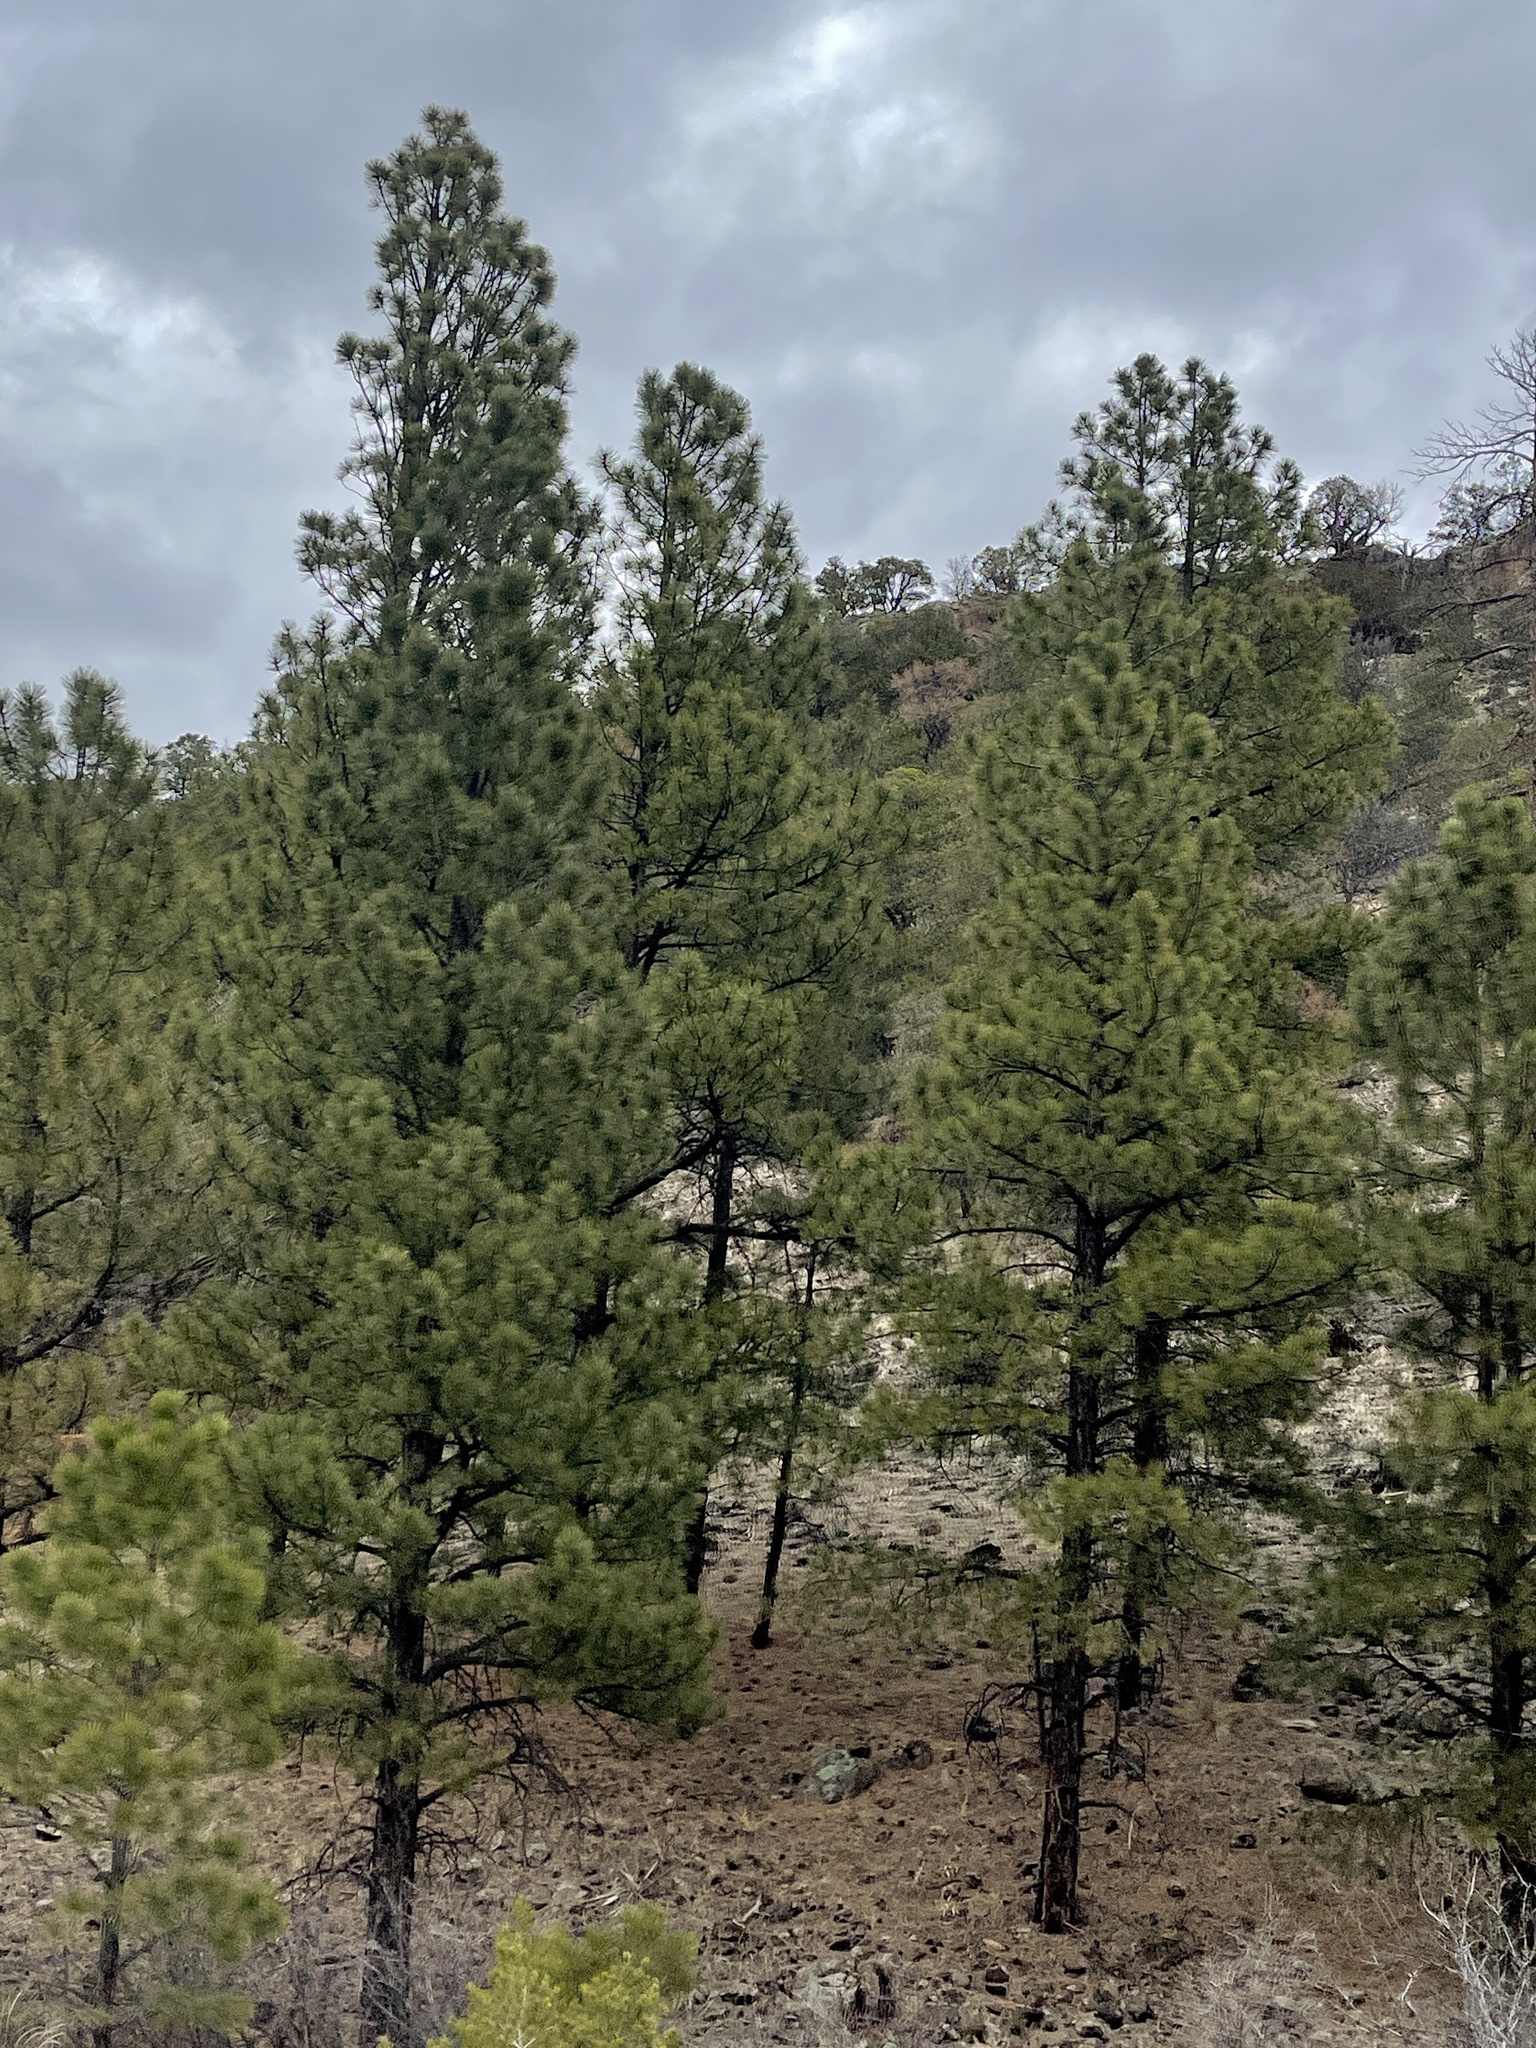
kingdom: Plantae
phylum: Tracheophyta
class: Pinopsida
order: Pinales
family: Pinaceae
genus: Pinus
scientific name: Pinus ponderosa
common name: Western yellow-pine
